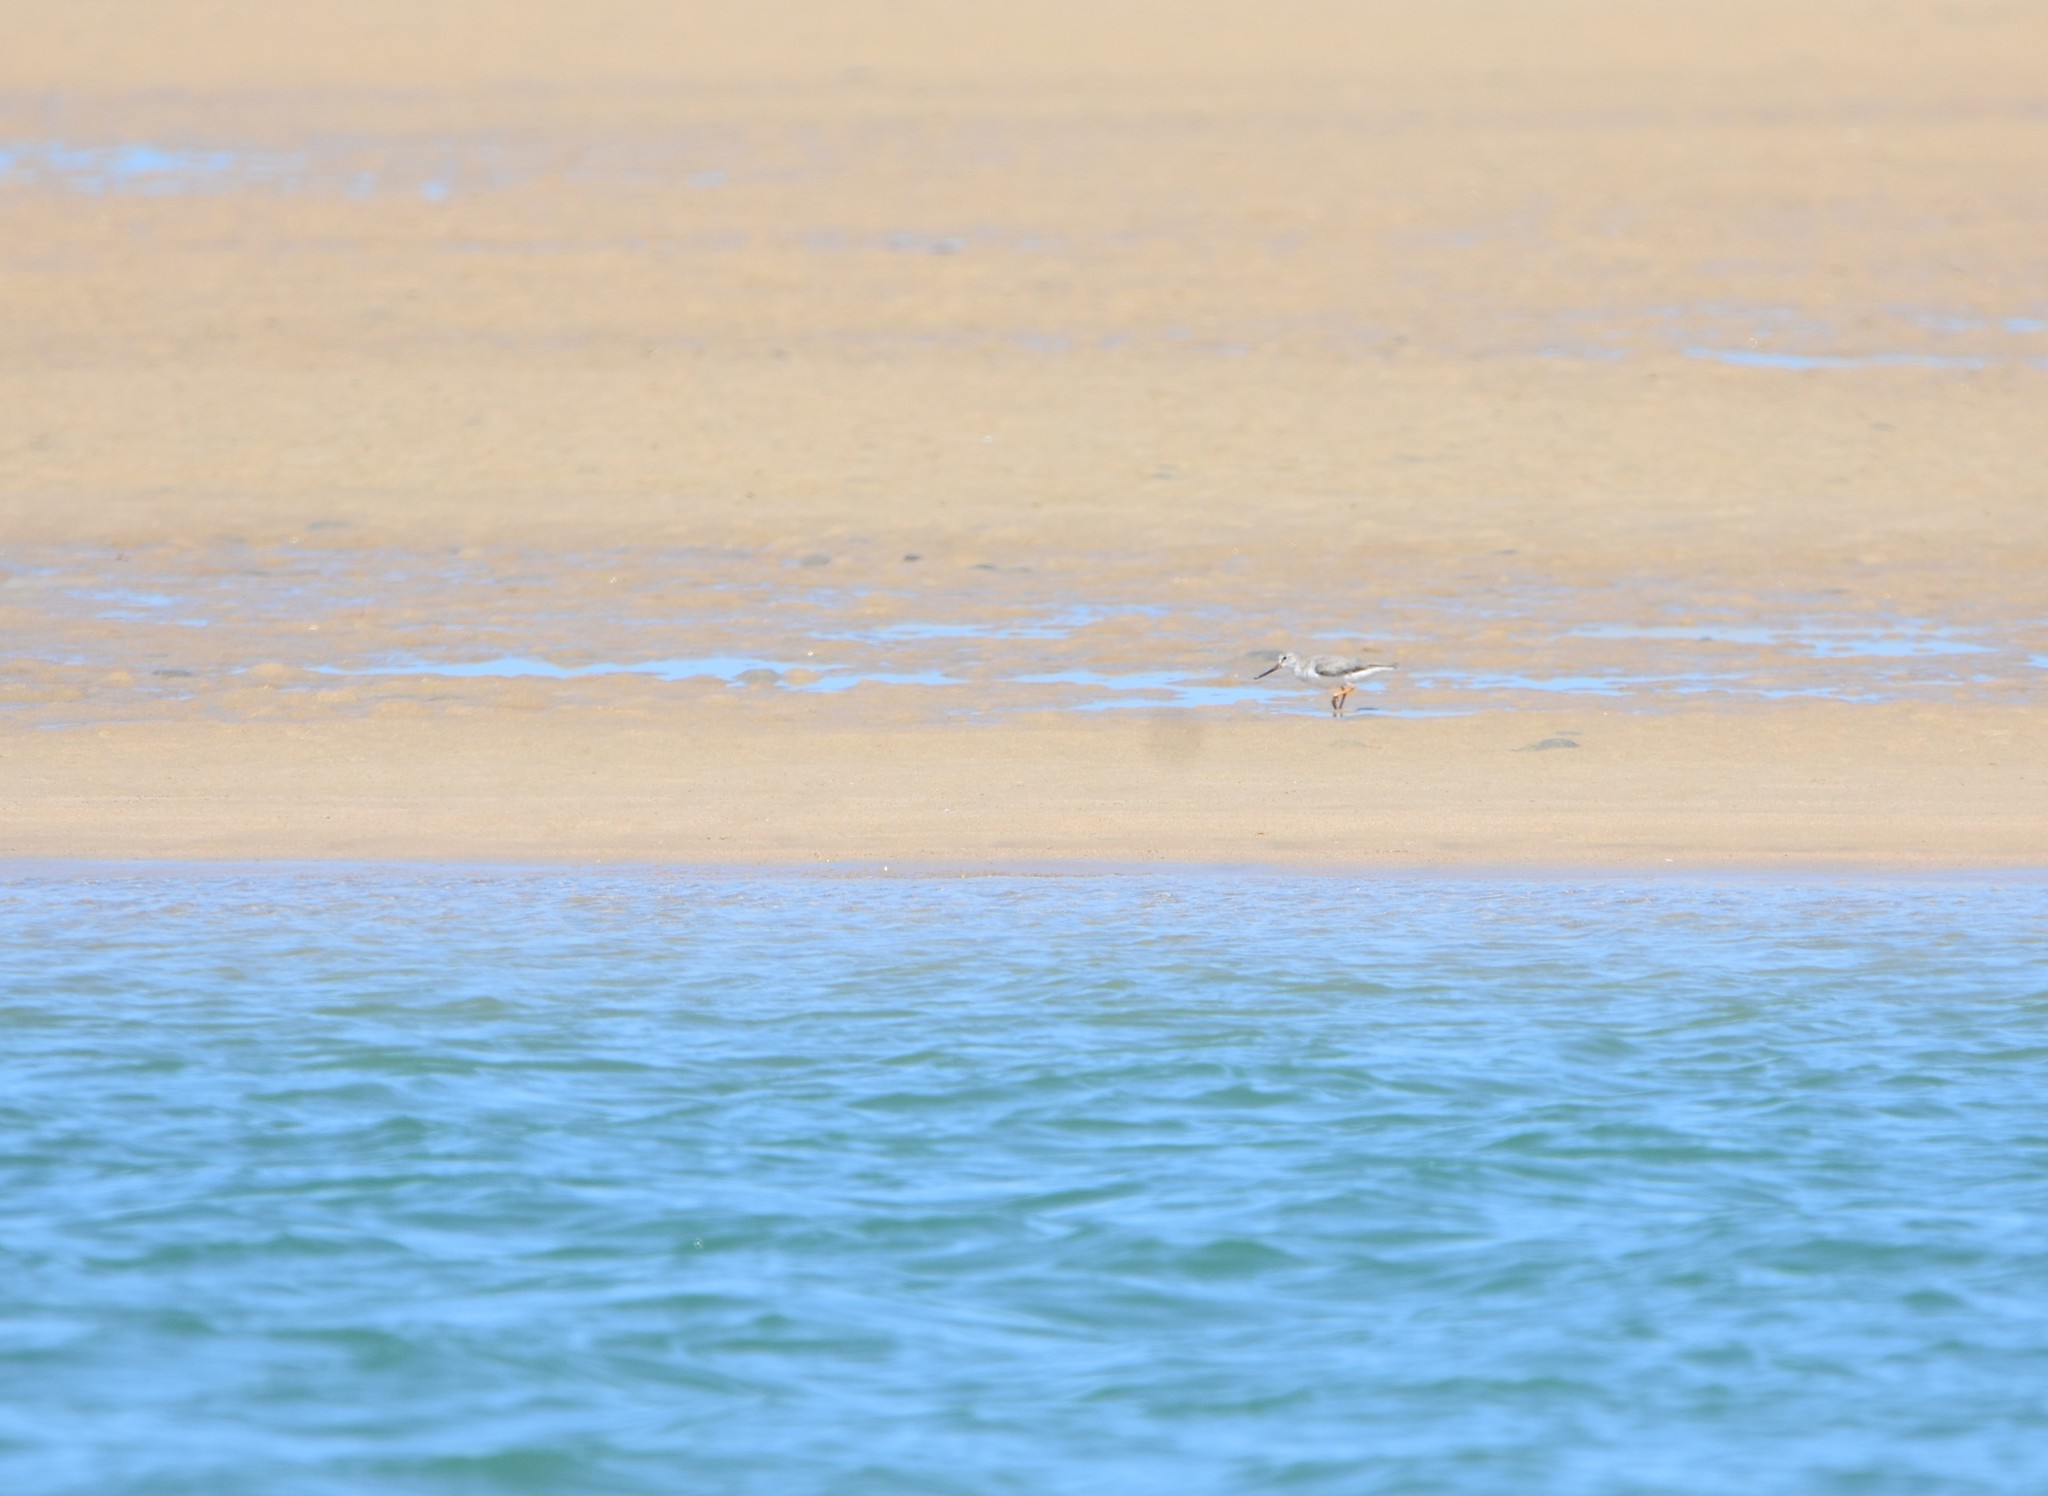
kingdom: Animalia
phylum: Chordata
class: Aves
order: Charadriiformes
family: Scolopacidae
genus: Xenus
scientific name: Xenus cinereus
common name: Terek sandpiper
